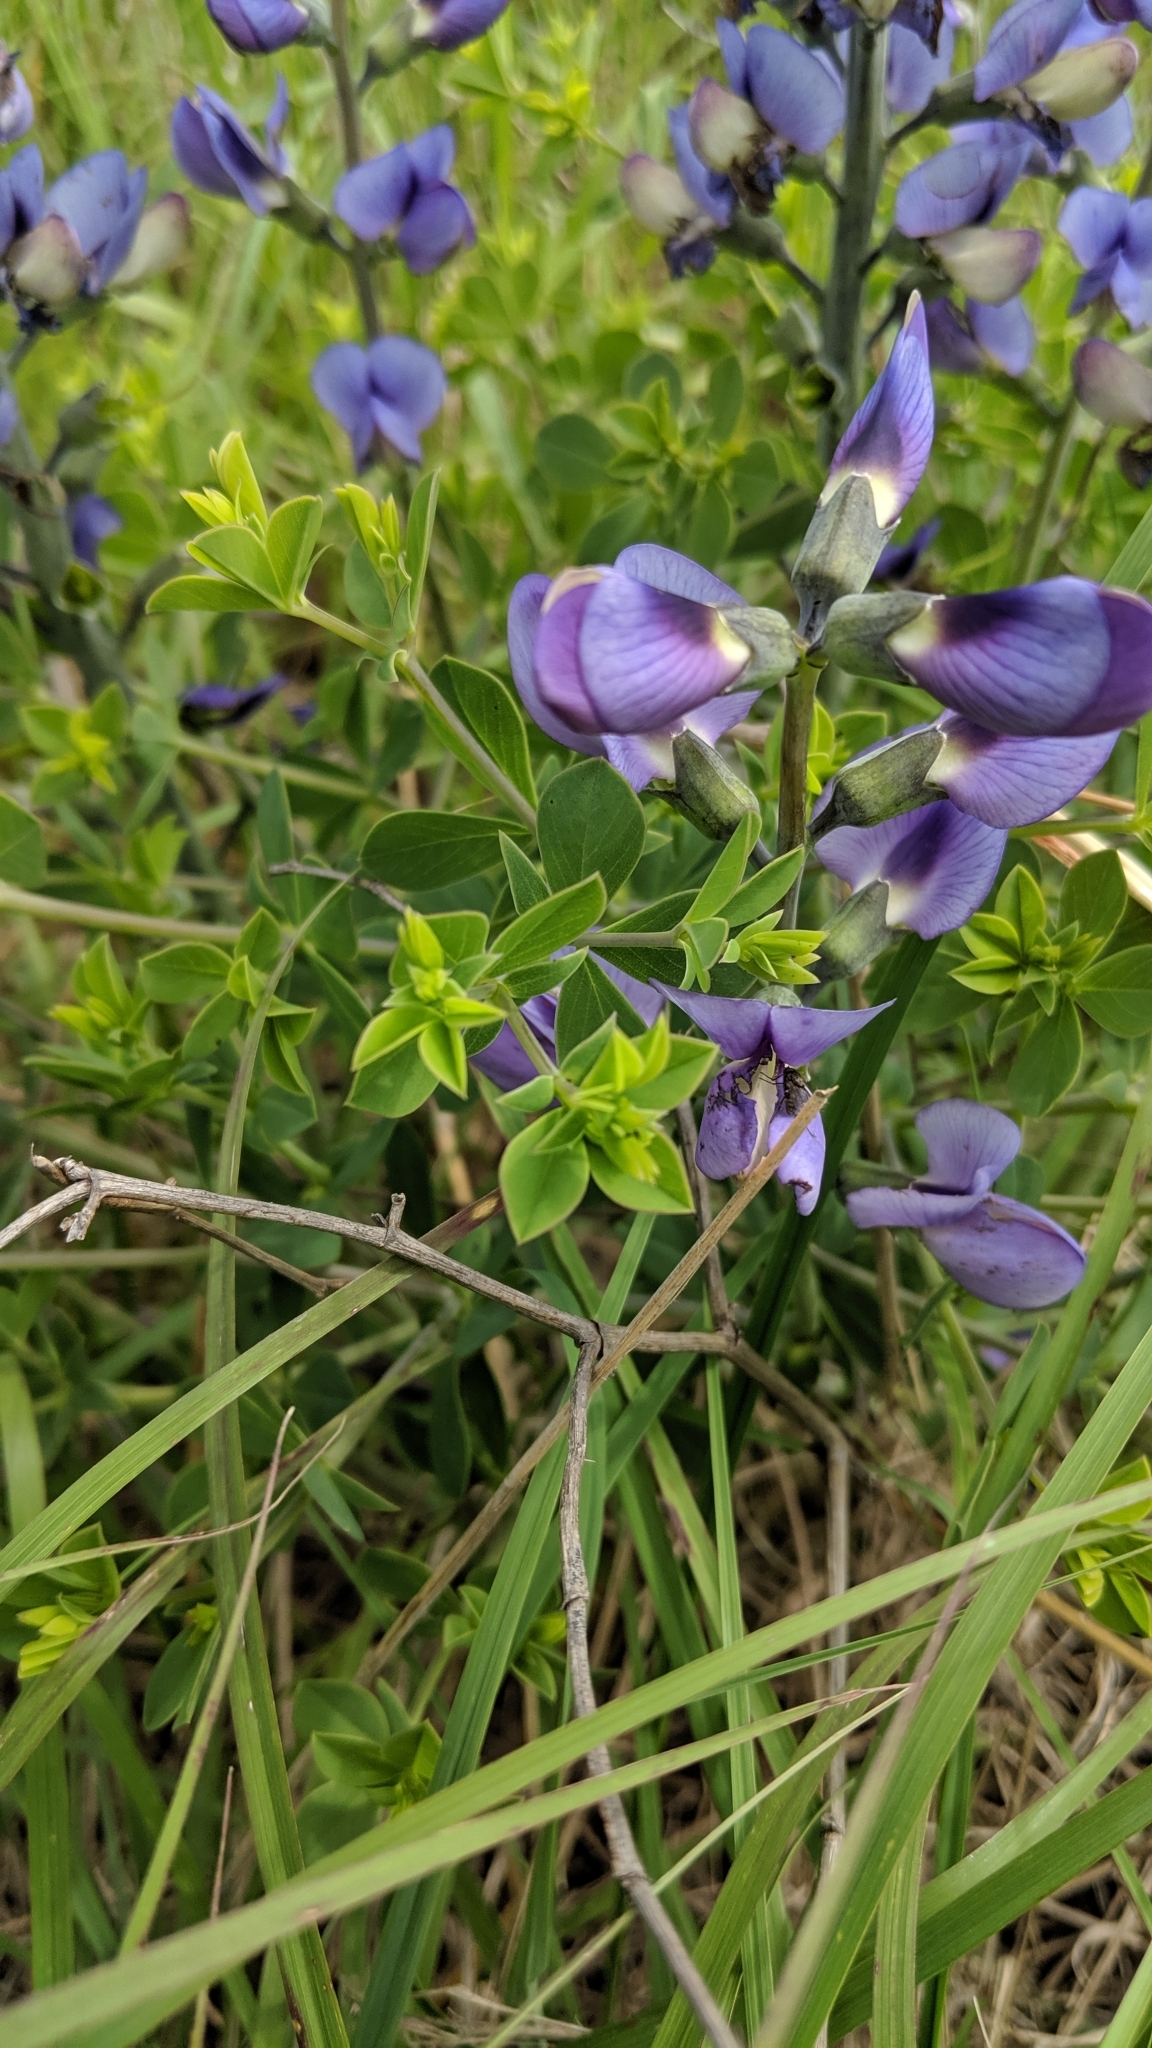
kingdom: Plantae
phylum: Tracheophyta
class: Magnoliopsida
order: Fabales
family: Fabaceae
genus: Baptisia
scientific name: Baptisia australis
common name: Blue false indigo
